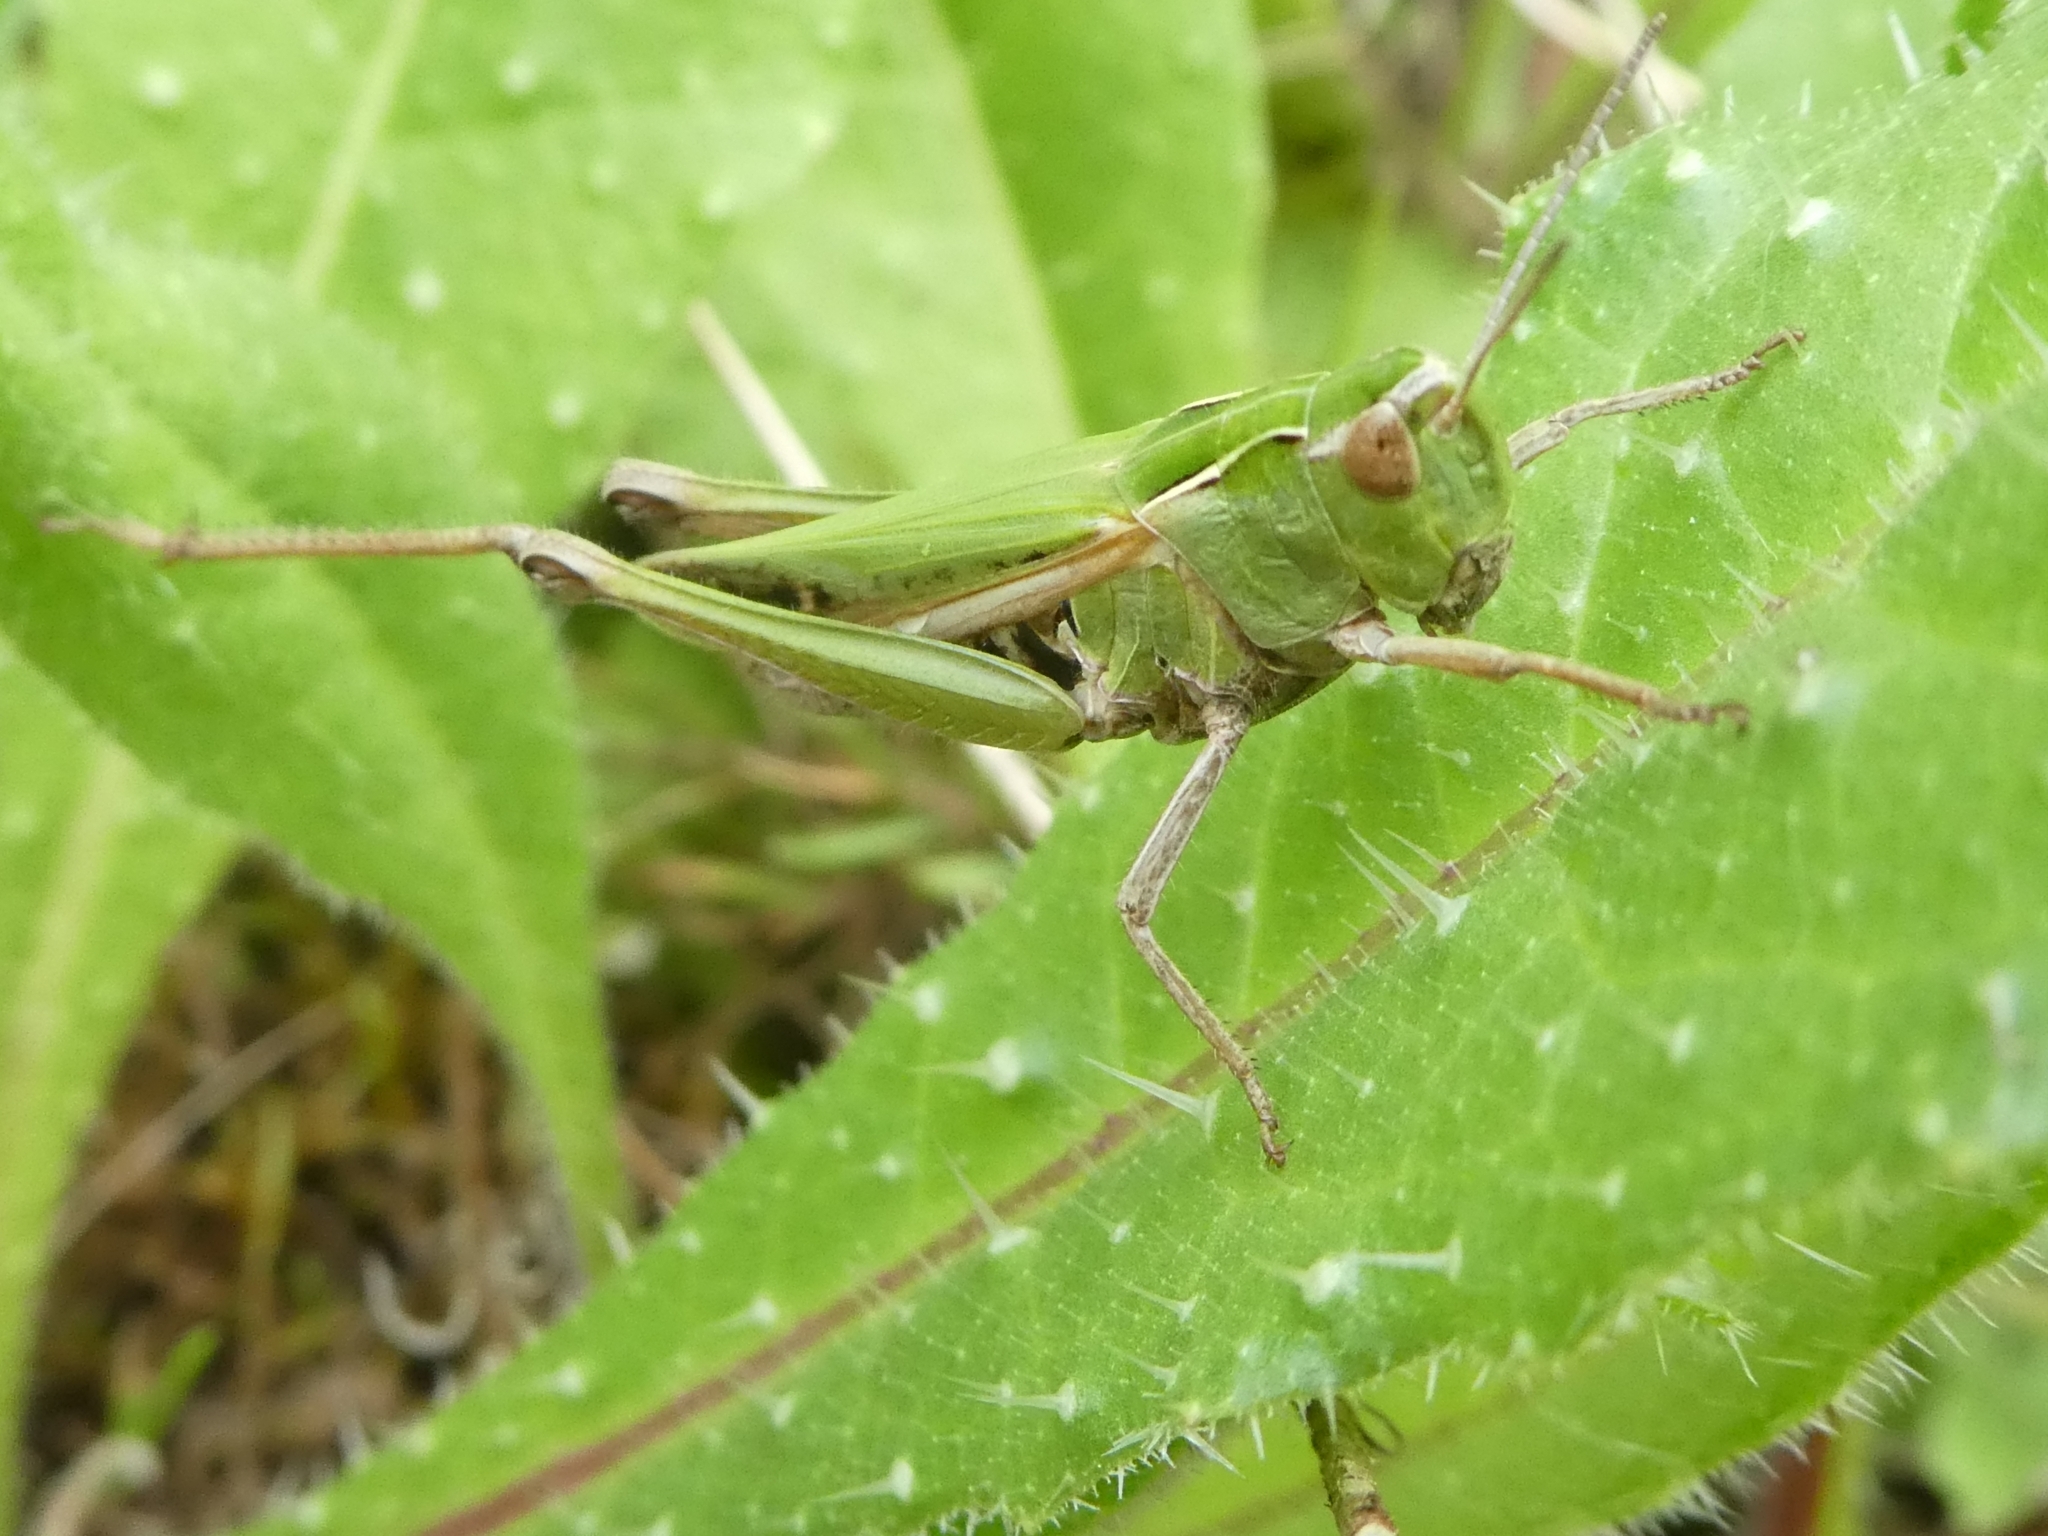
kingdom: Animalia
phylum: Arthropoda
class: Insecta
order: Orthoptera
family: Acrididae
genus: Omocestus
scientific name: Omocestus viridulus
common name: Common green grasshopper
